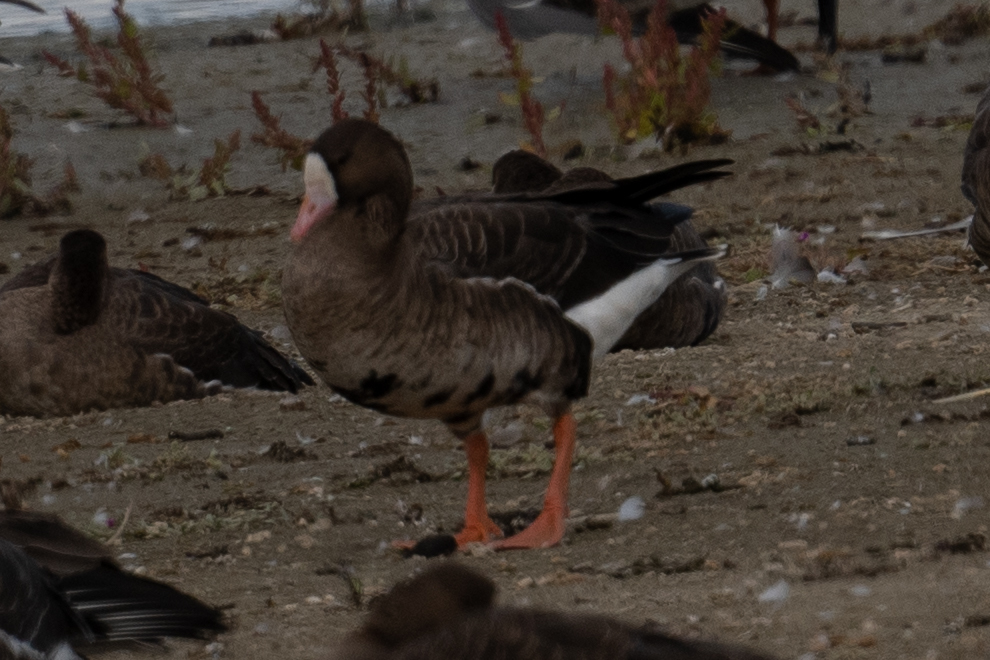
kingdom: Animalia
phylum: Chordata
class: Aves
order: Anseriformes
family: Anatidae
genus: Anser
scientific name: Anser albifrons
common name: Greater white-fronted goose
